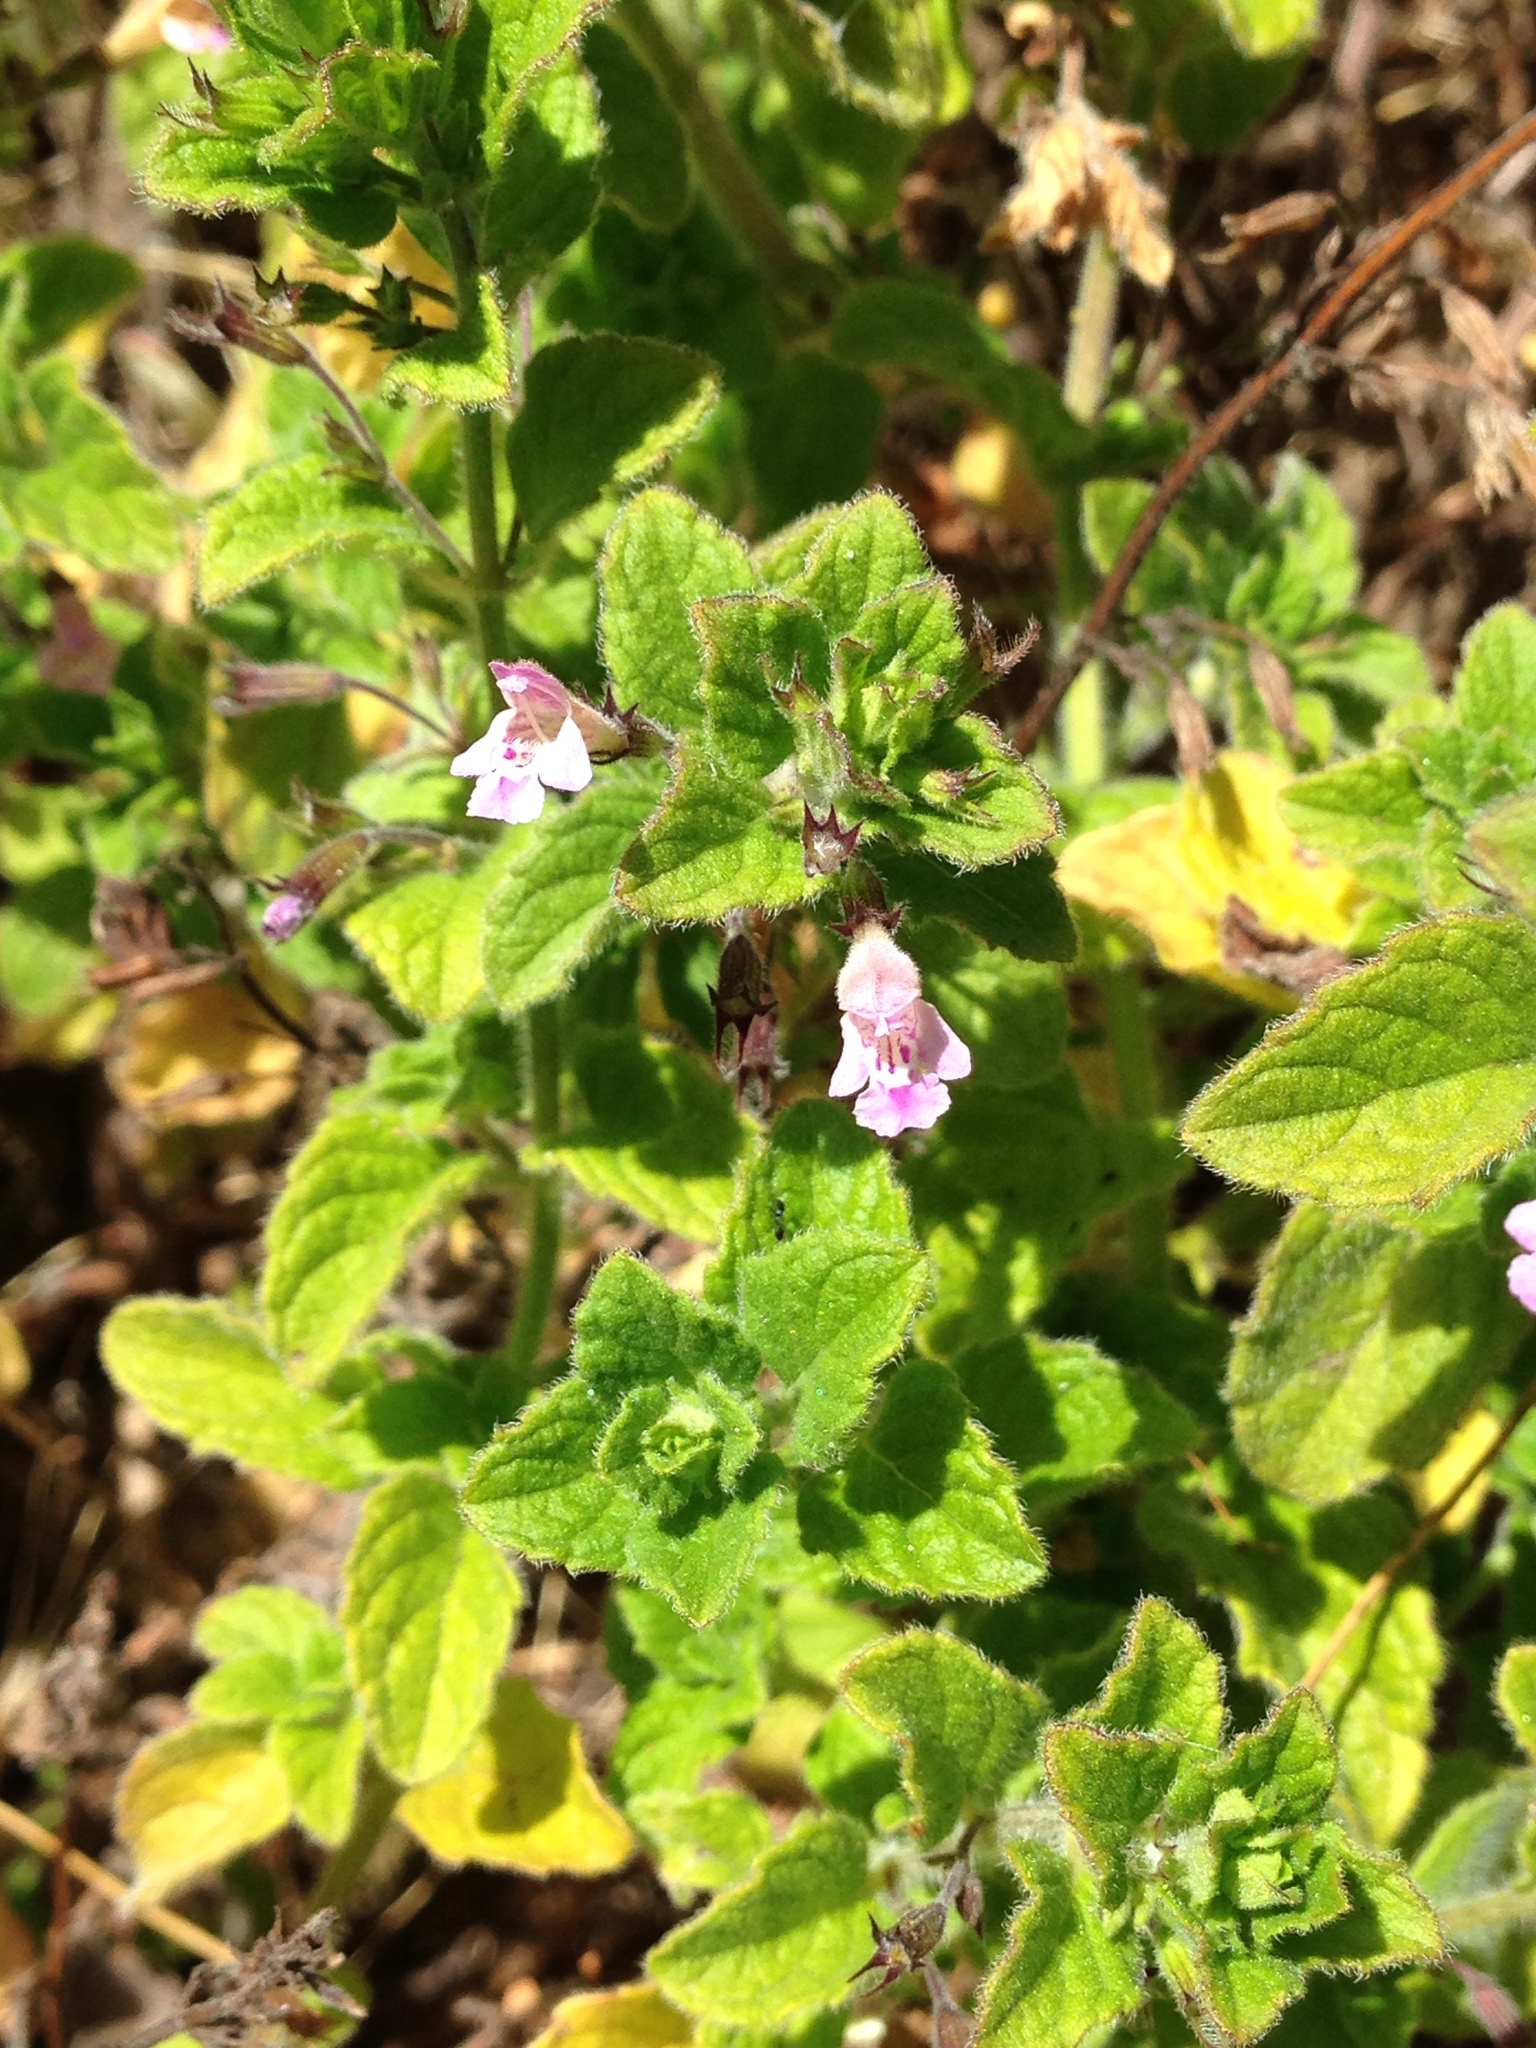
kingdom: Plantae
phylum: Tracheophyta
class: Magnoliopsida
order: Lamiales
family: Lamiaceae
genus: Clinopodium
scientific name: Clinopodium menthifolium
